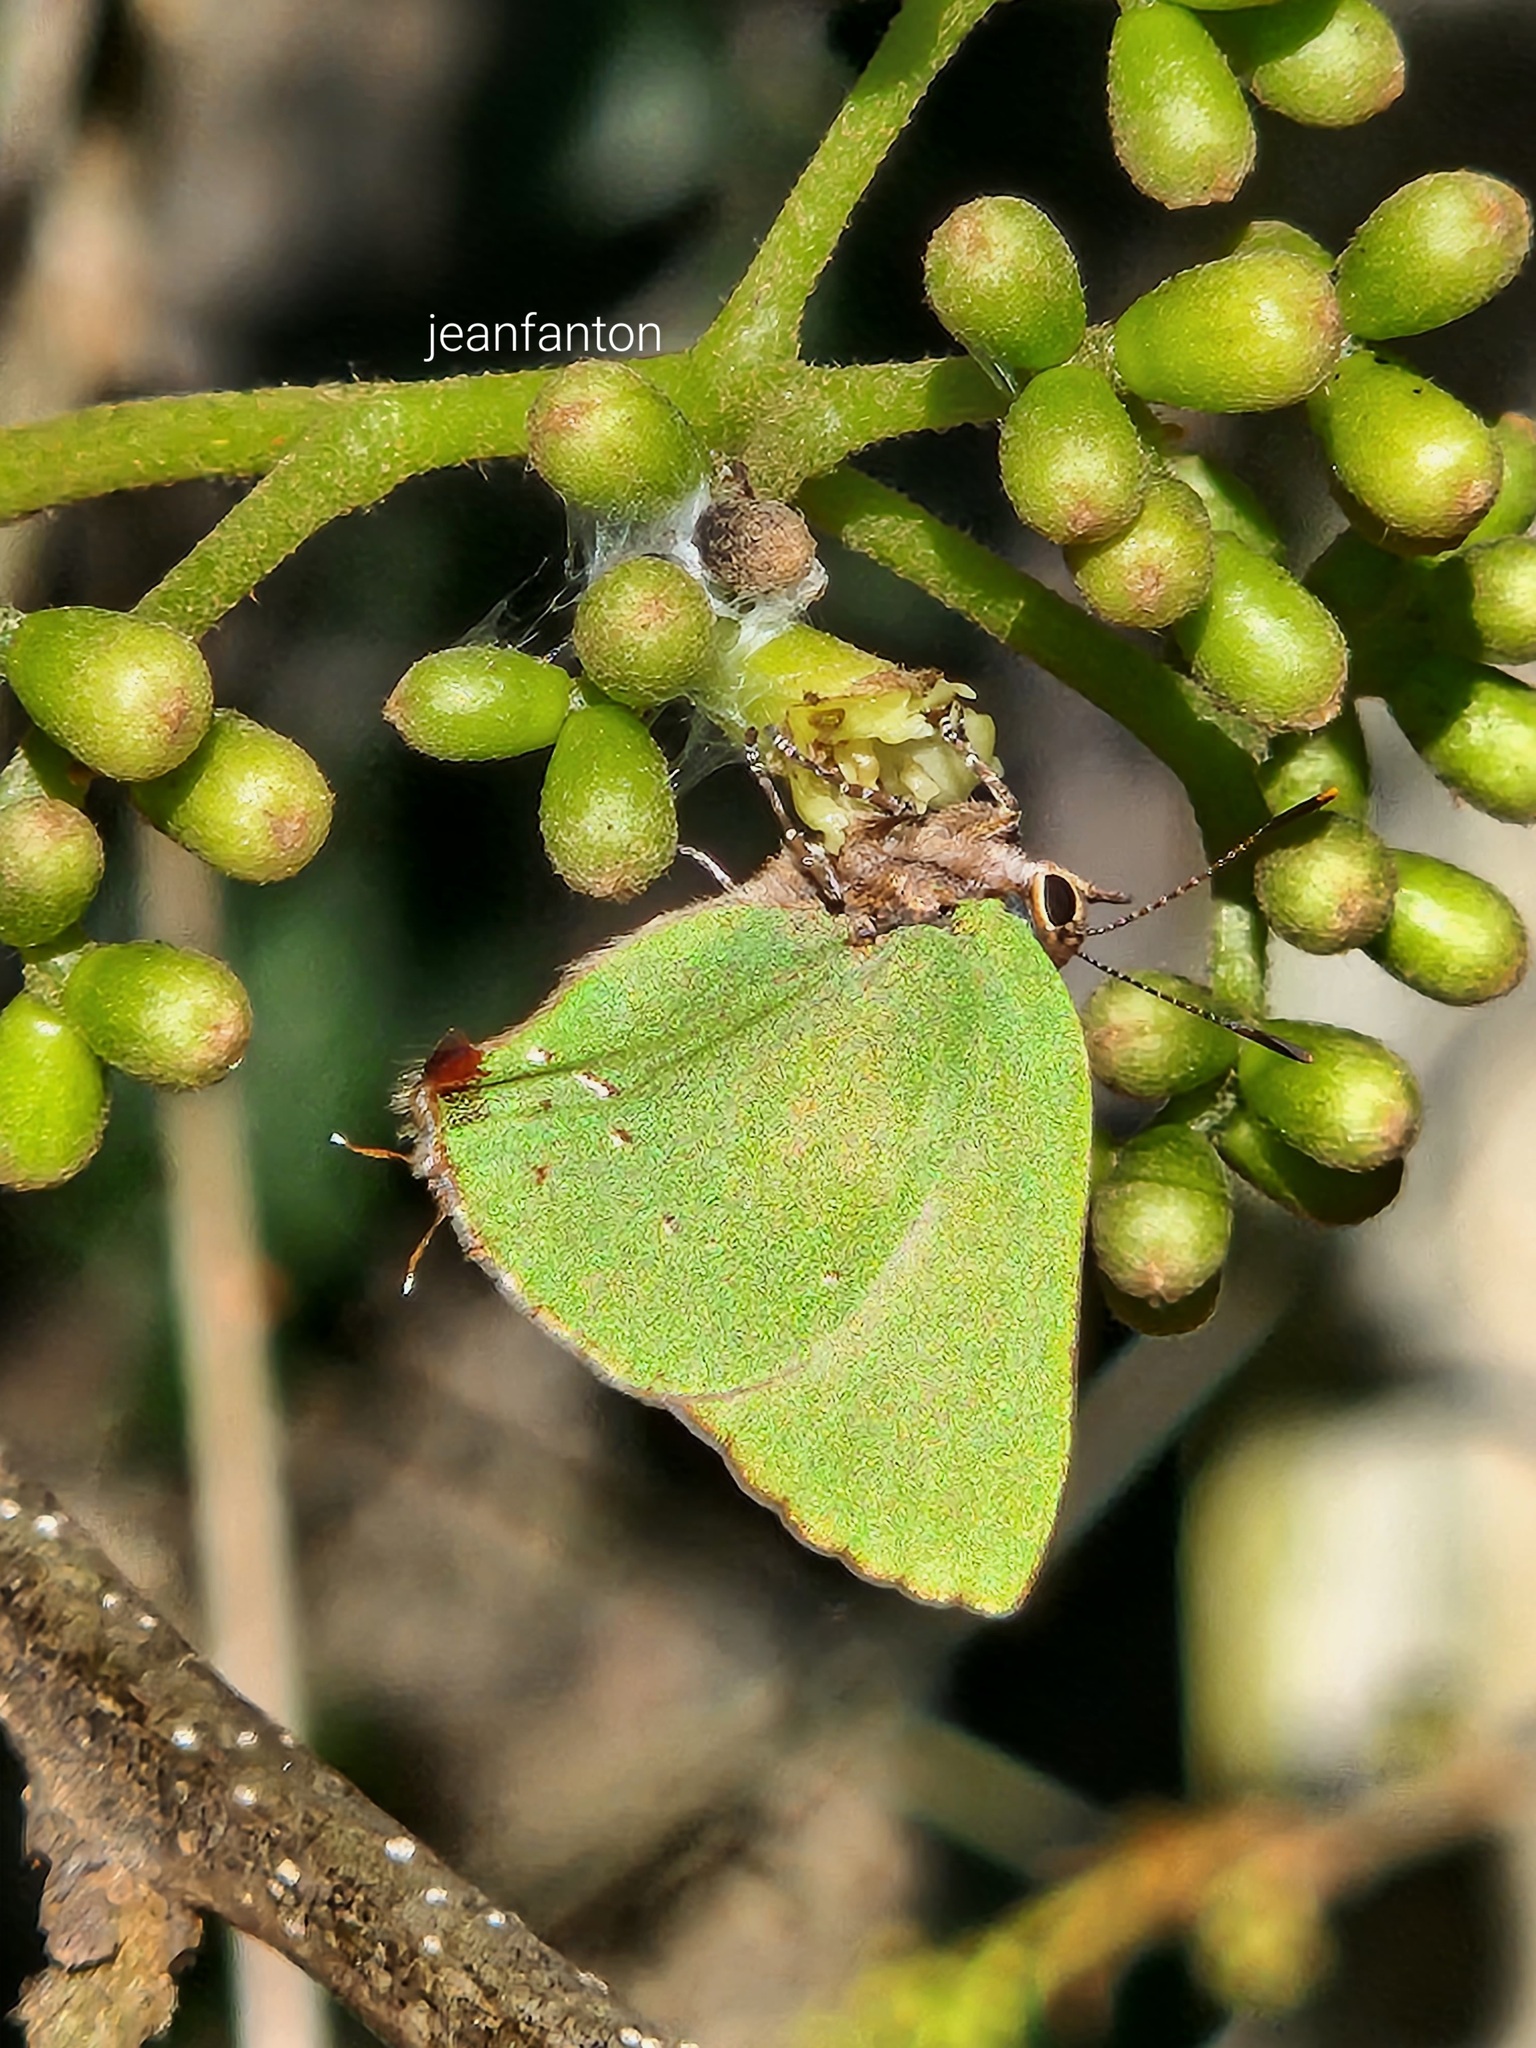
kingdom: Animalia
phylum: Arthropoda
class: Insecta
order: Lepidoptera
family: Lycaenidae
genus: Thecla
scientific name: Thecla herodotus
